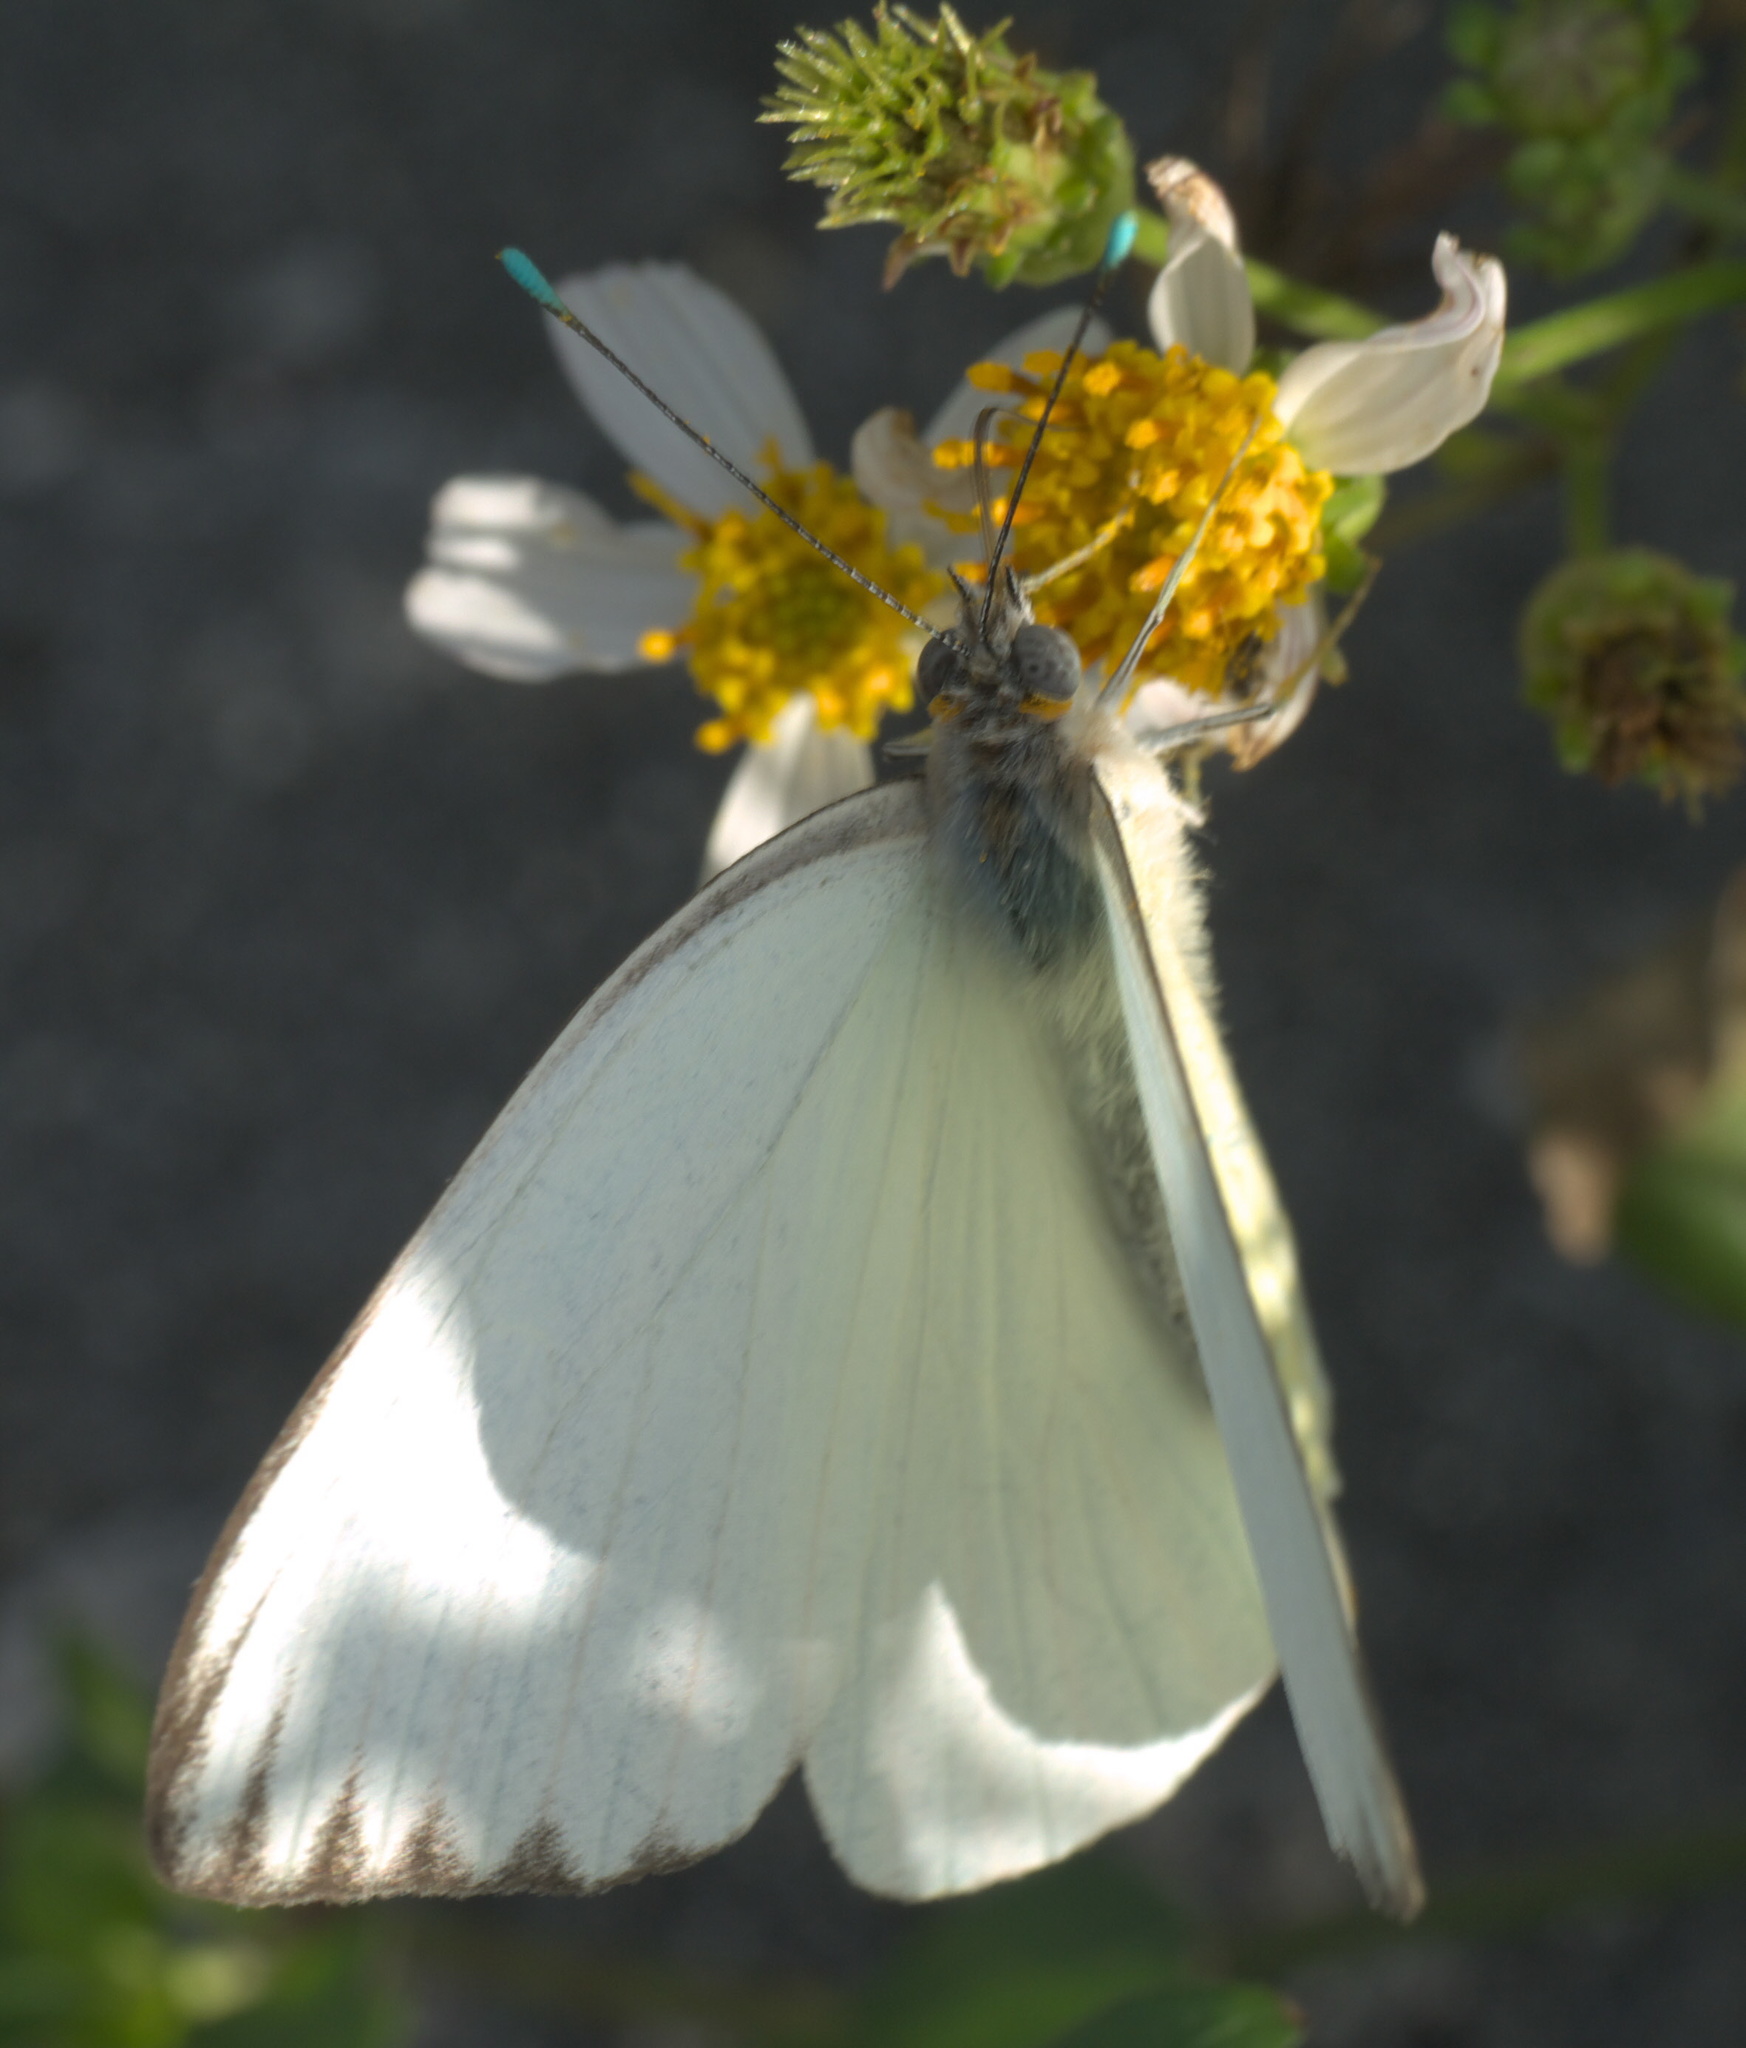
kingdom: Animalia
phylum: Arthropoda
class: Insecta
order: Lepidoptera
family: Pieridae
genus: Ascia
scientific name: Ascia monuste
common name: Great southern white
